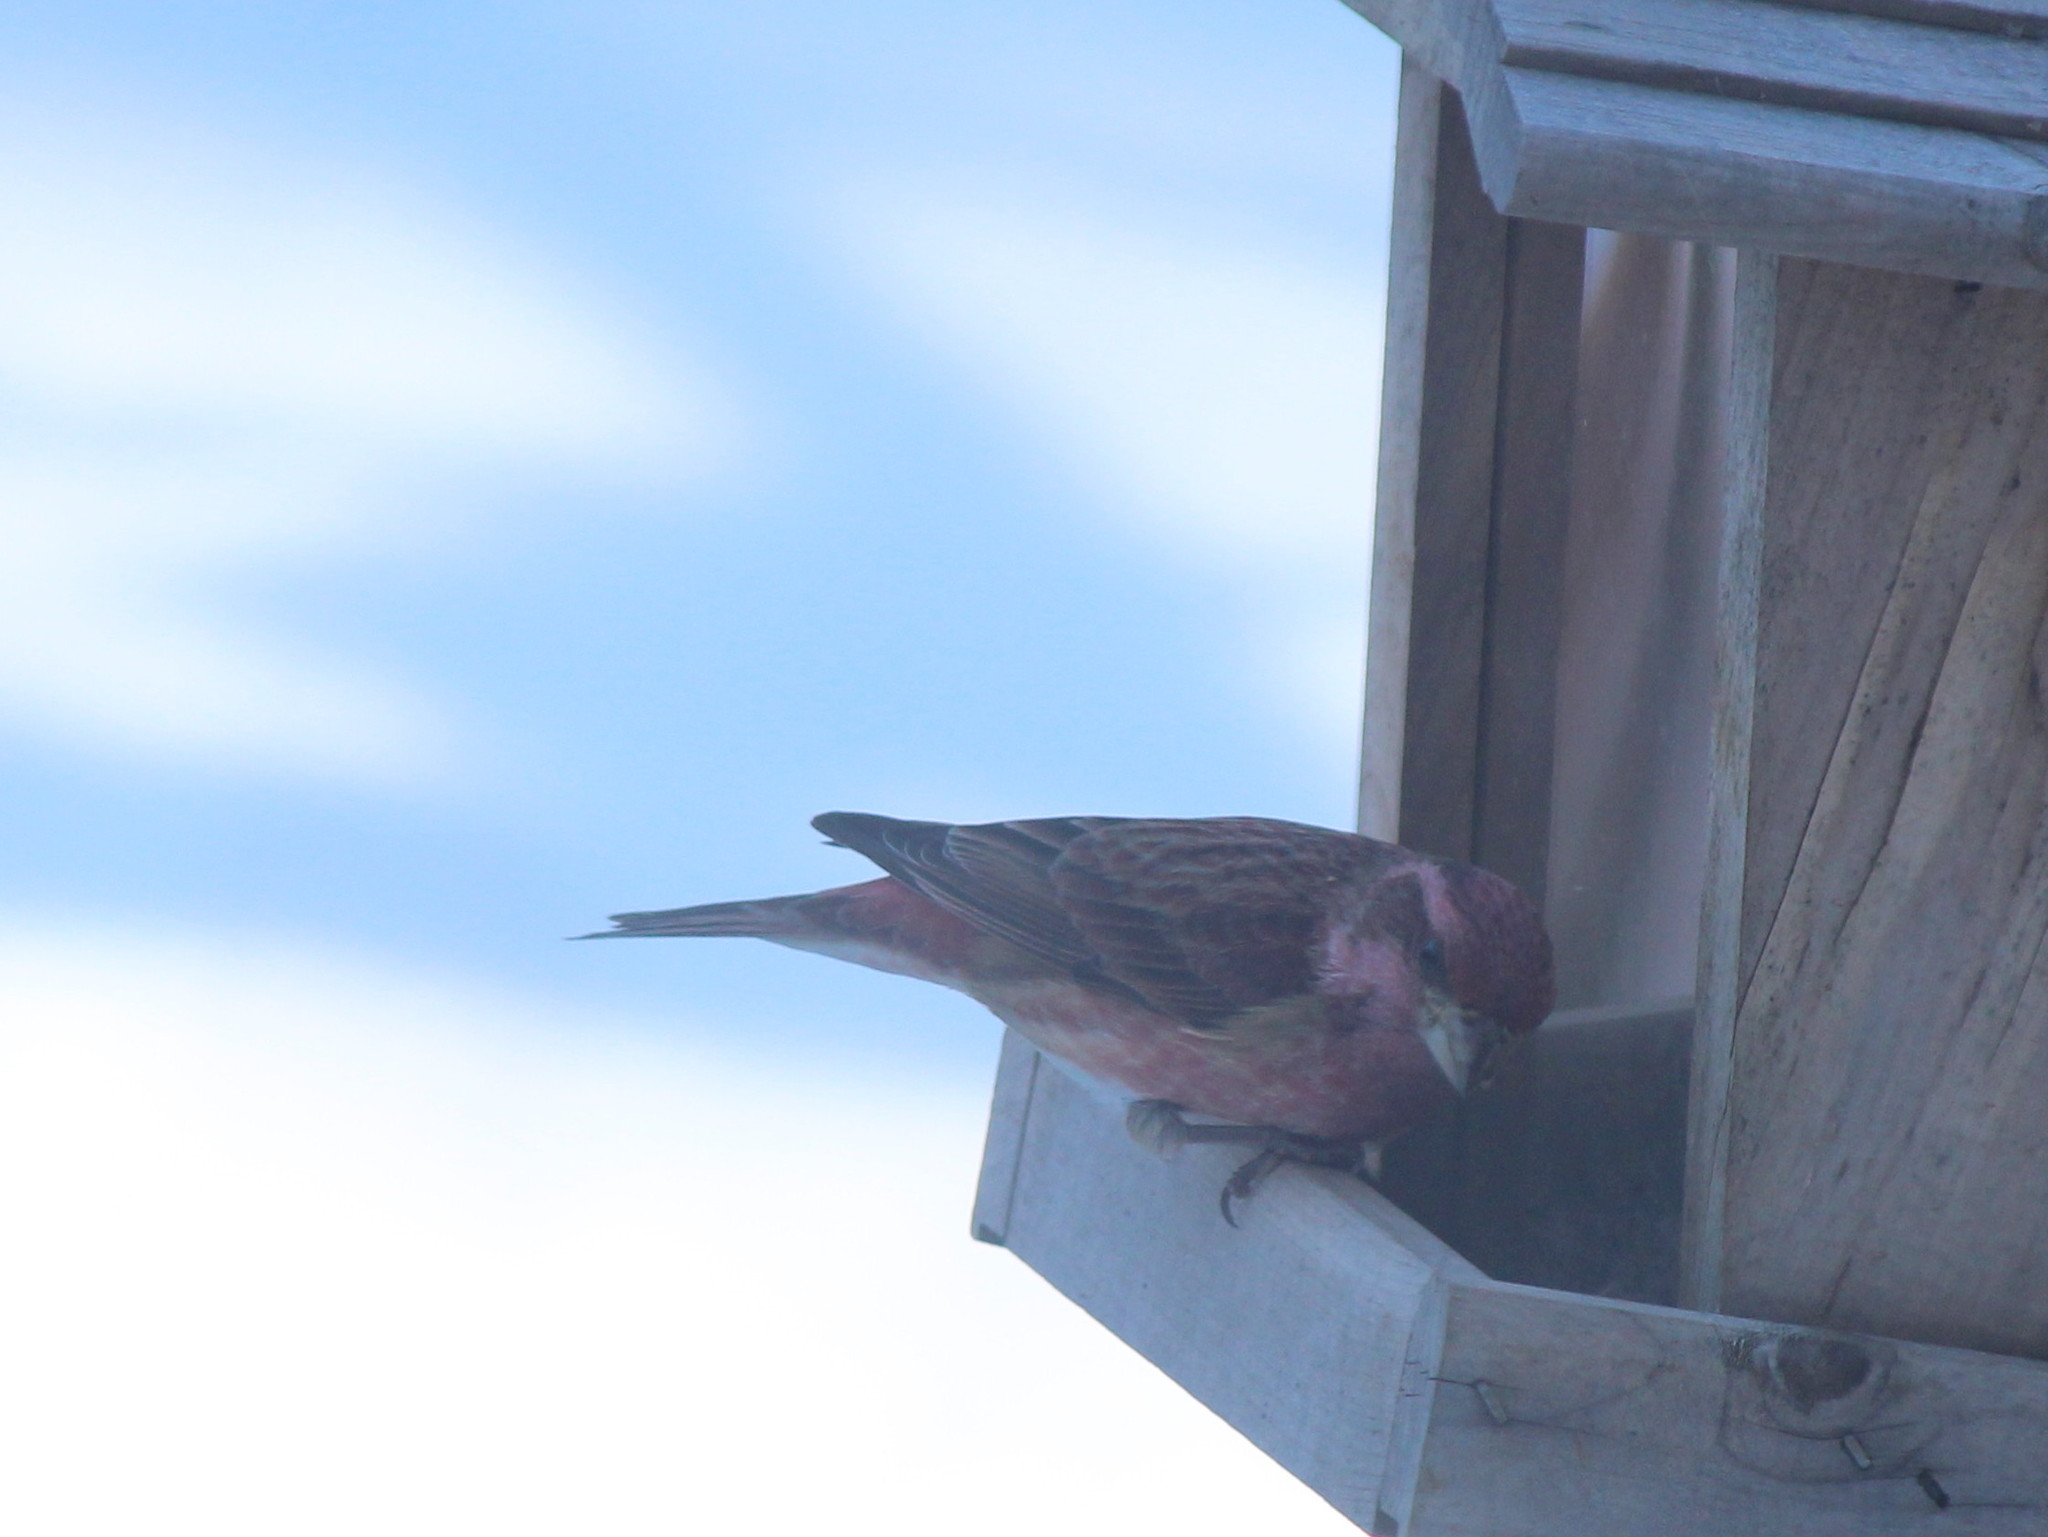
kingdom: Animalia
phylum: Chordata
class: Aves
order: Passeriformes
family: Fringillidae
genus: Haemorhous
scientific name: Haemorhous purpureus
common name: Purple finch
